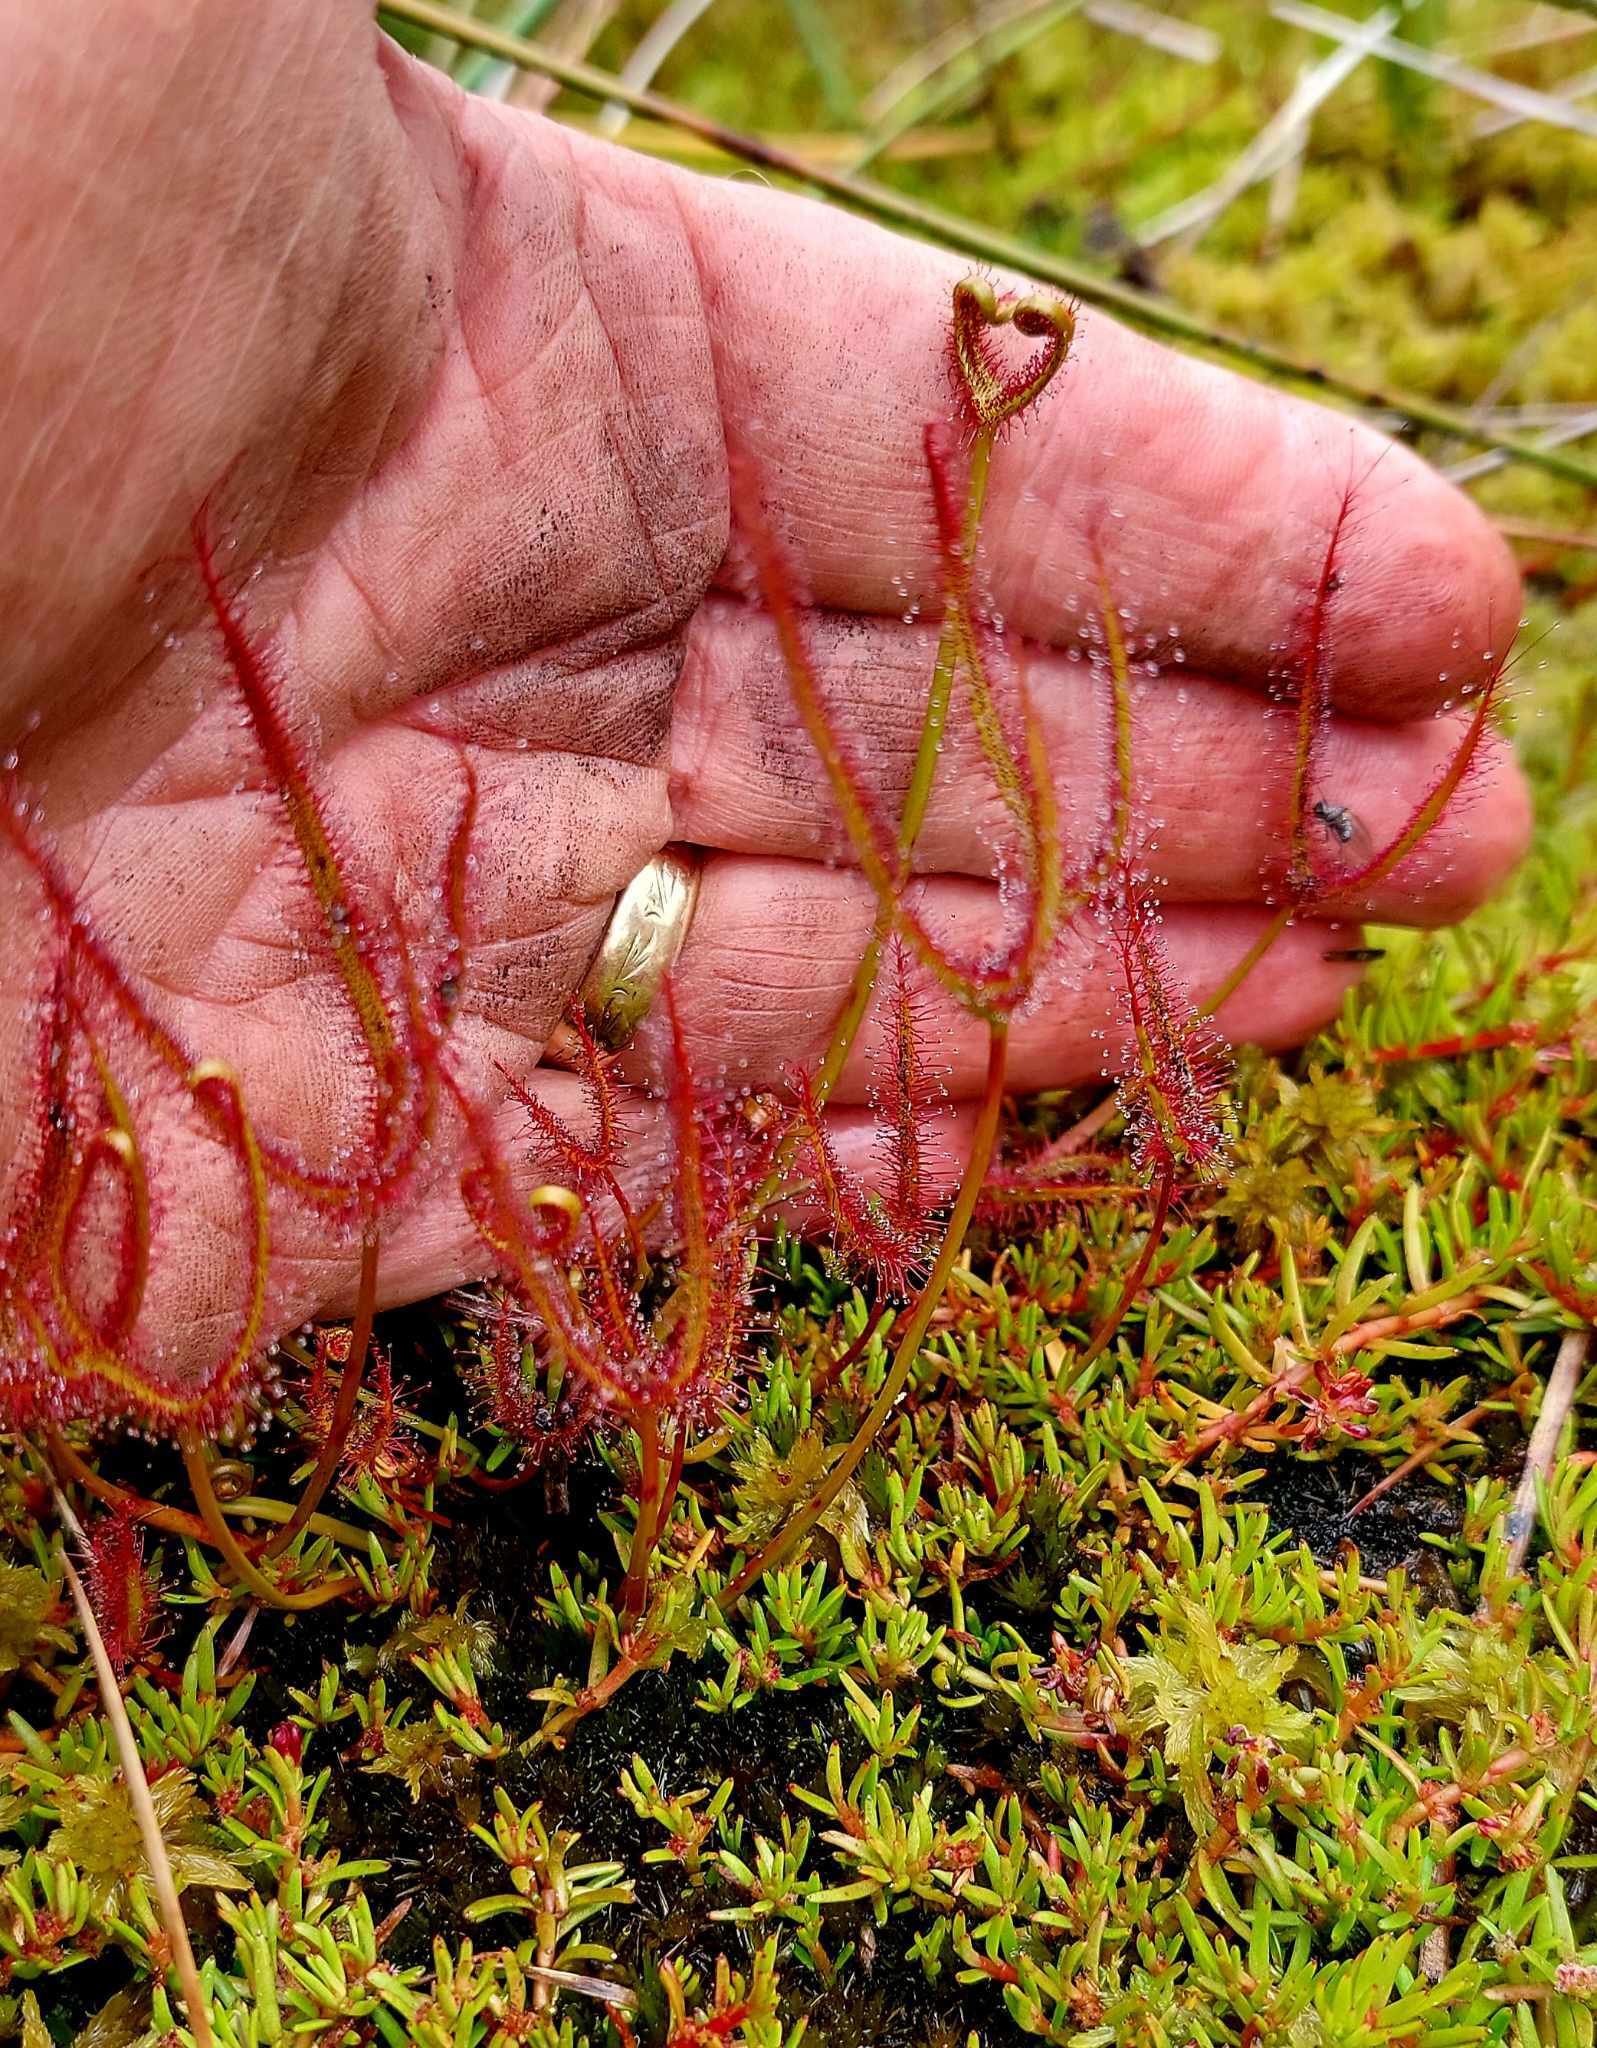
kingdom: Plantae
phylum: Tracheophyta
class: Magnoliopsida
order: Caryophyllales
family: Droseraceae
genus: Drosera
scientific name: Drosera binata
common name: Forked sundew
